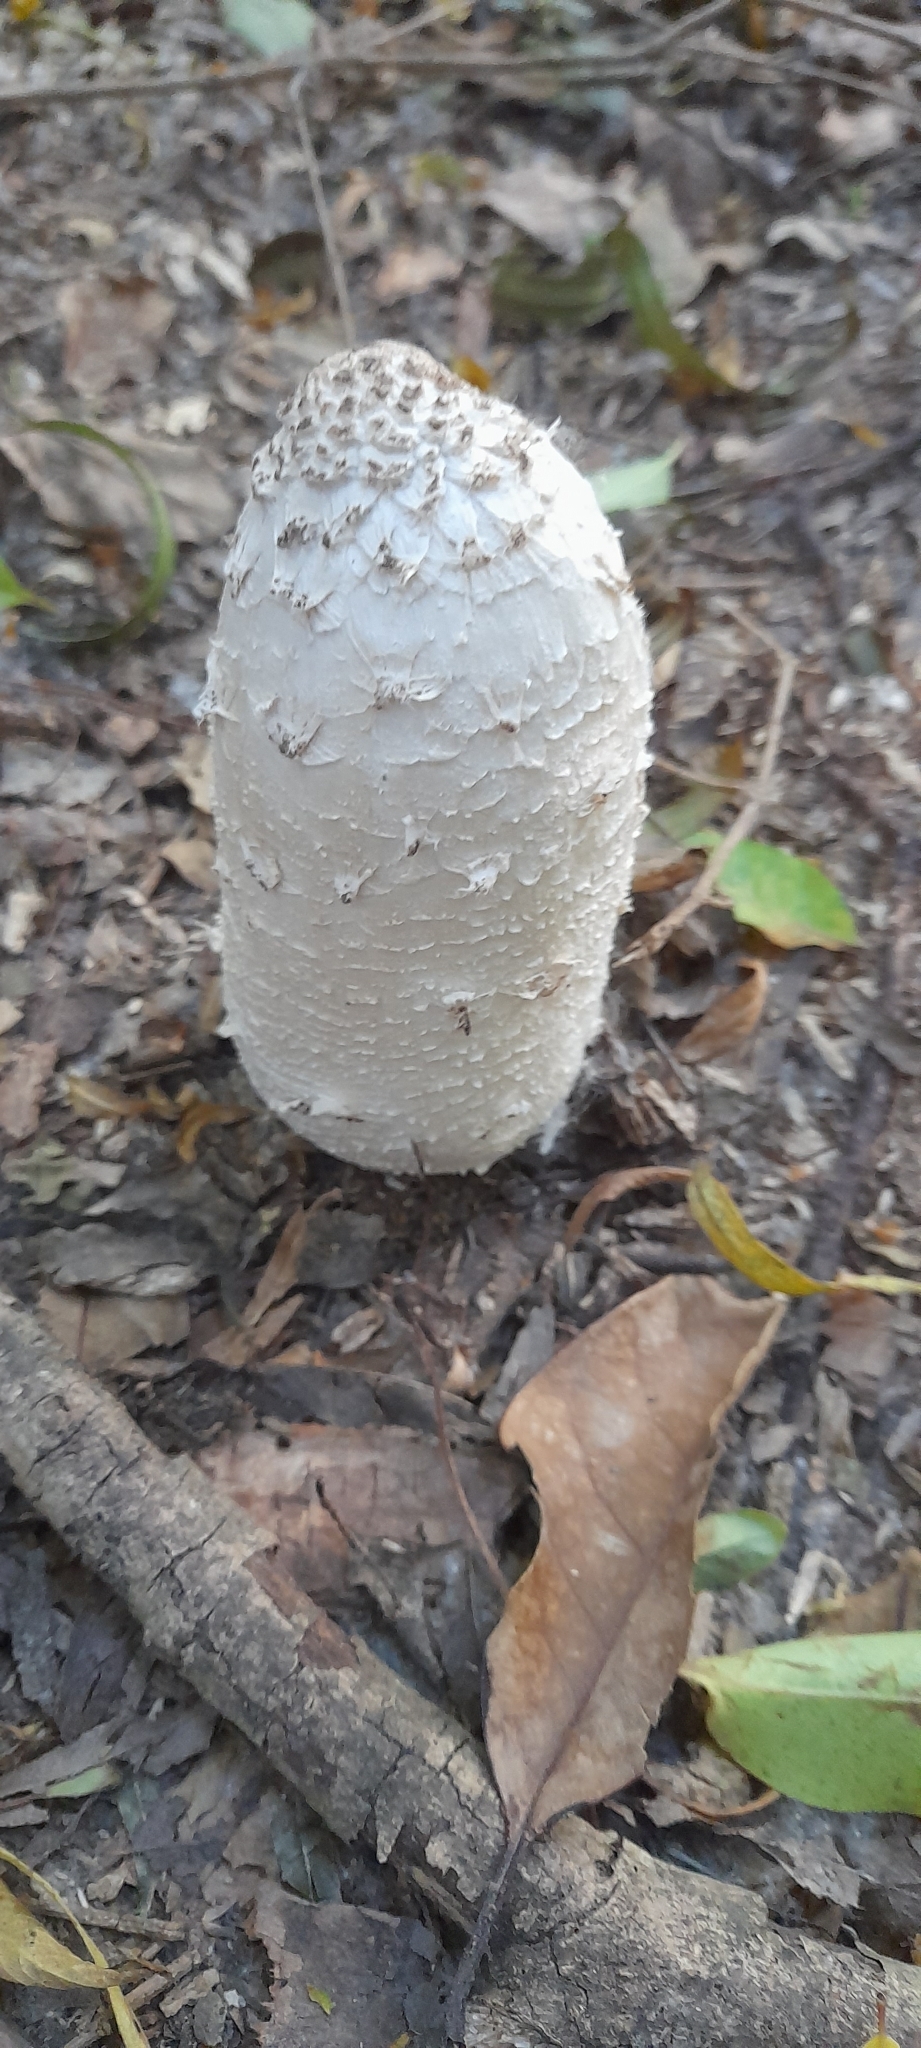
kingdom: Fungi
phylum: Basidiomycota
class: Agaricomycetes
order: Agaricales
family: Agaricaceae
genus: Coprinus
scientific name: Coprinus comatus
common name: Lawyer's wig
